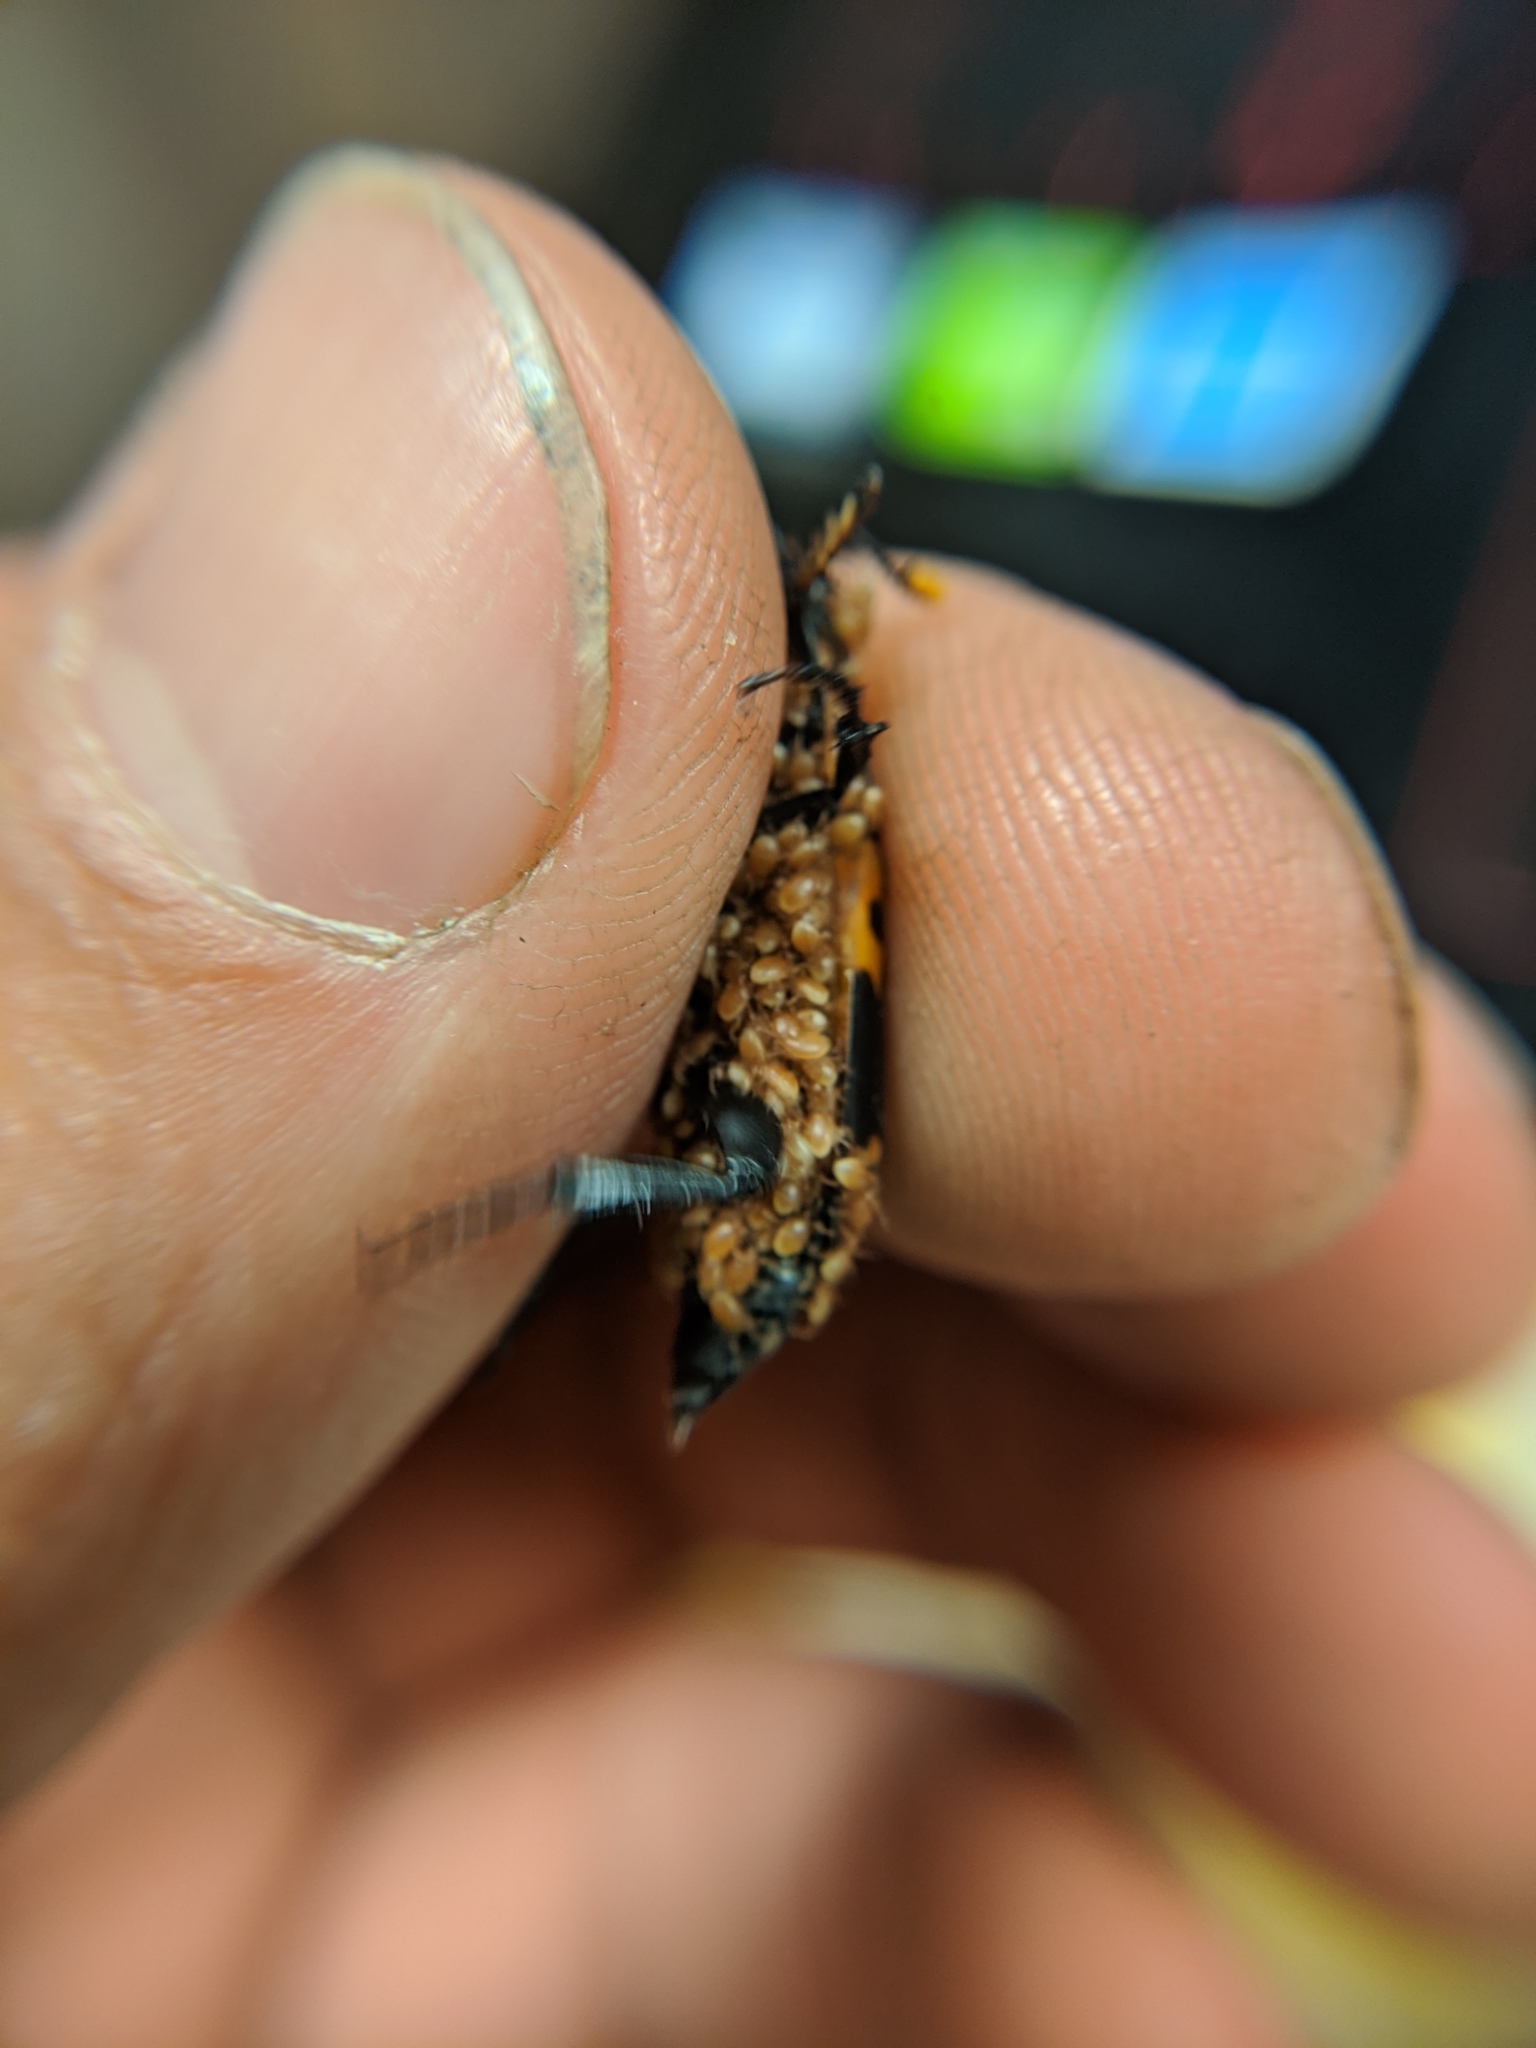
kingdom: Animalia
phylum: Arthropoda
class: Insecta
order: Coleoptera
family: Staphylinidae
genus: Nicrophorus
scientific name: Nicrophorus nepalensis
